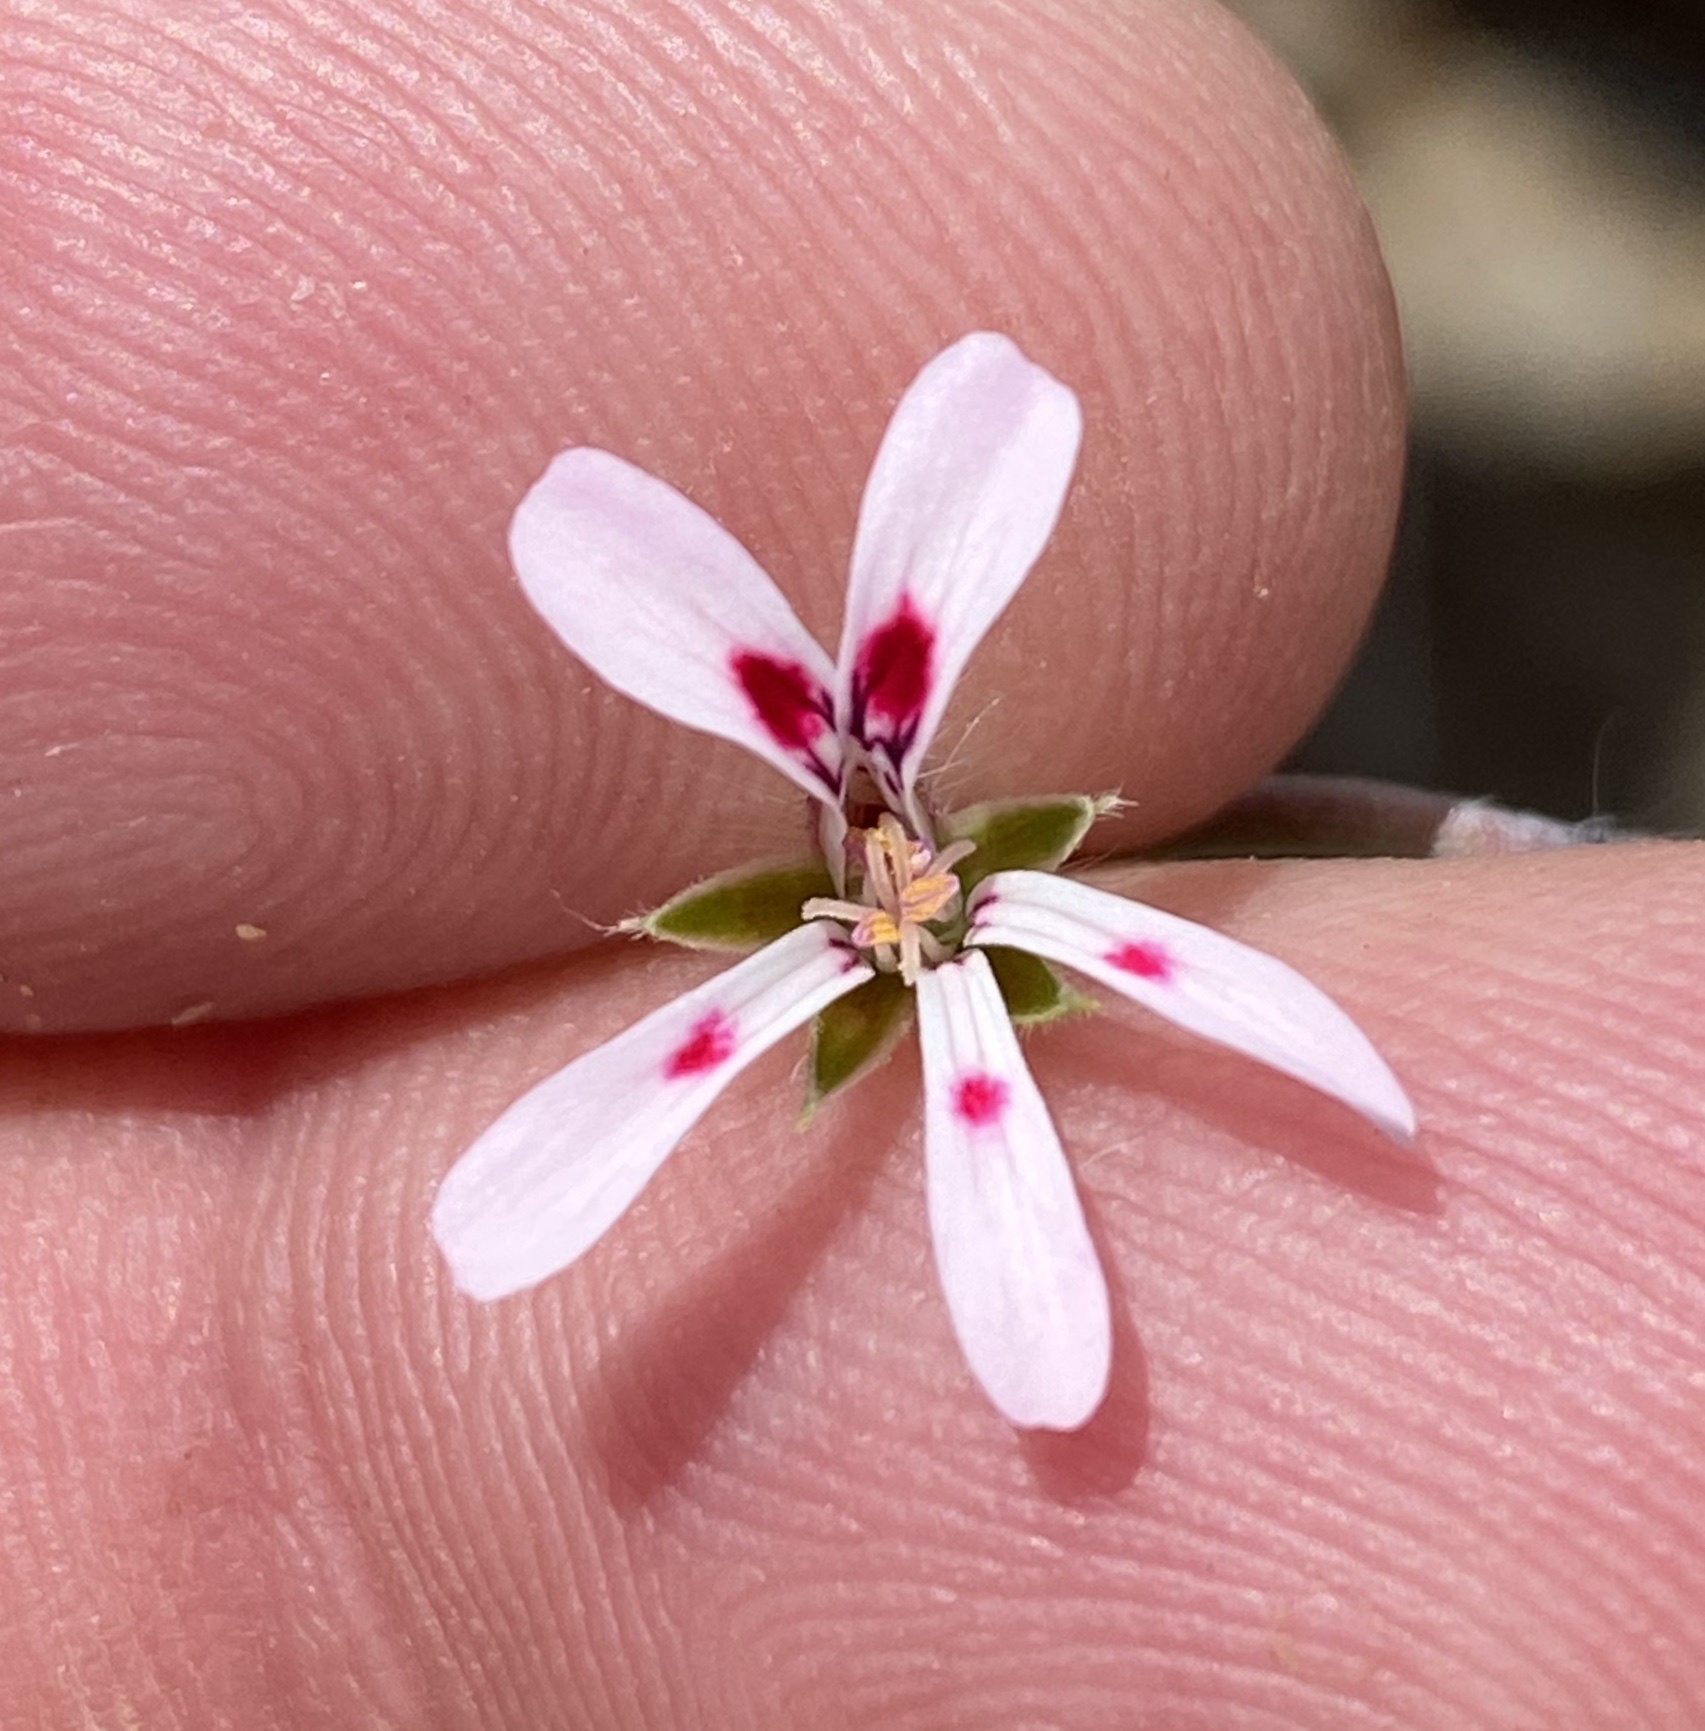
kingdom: Plantae
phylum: Tracheophyta
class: Magnoliopsida
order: Geraniales
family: Geraniaceae
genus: Pelargonium
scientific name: Pelargonium ranunculophyllum
